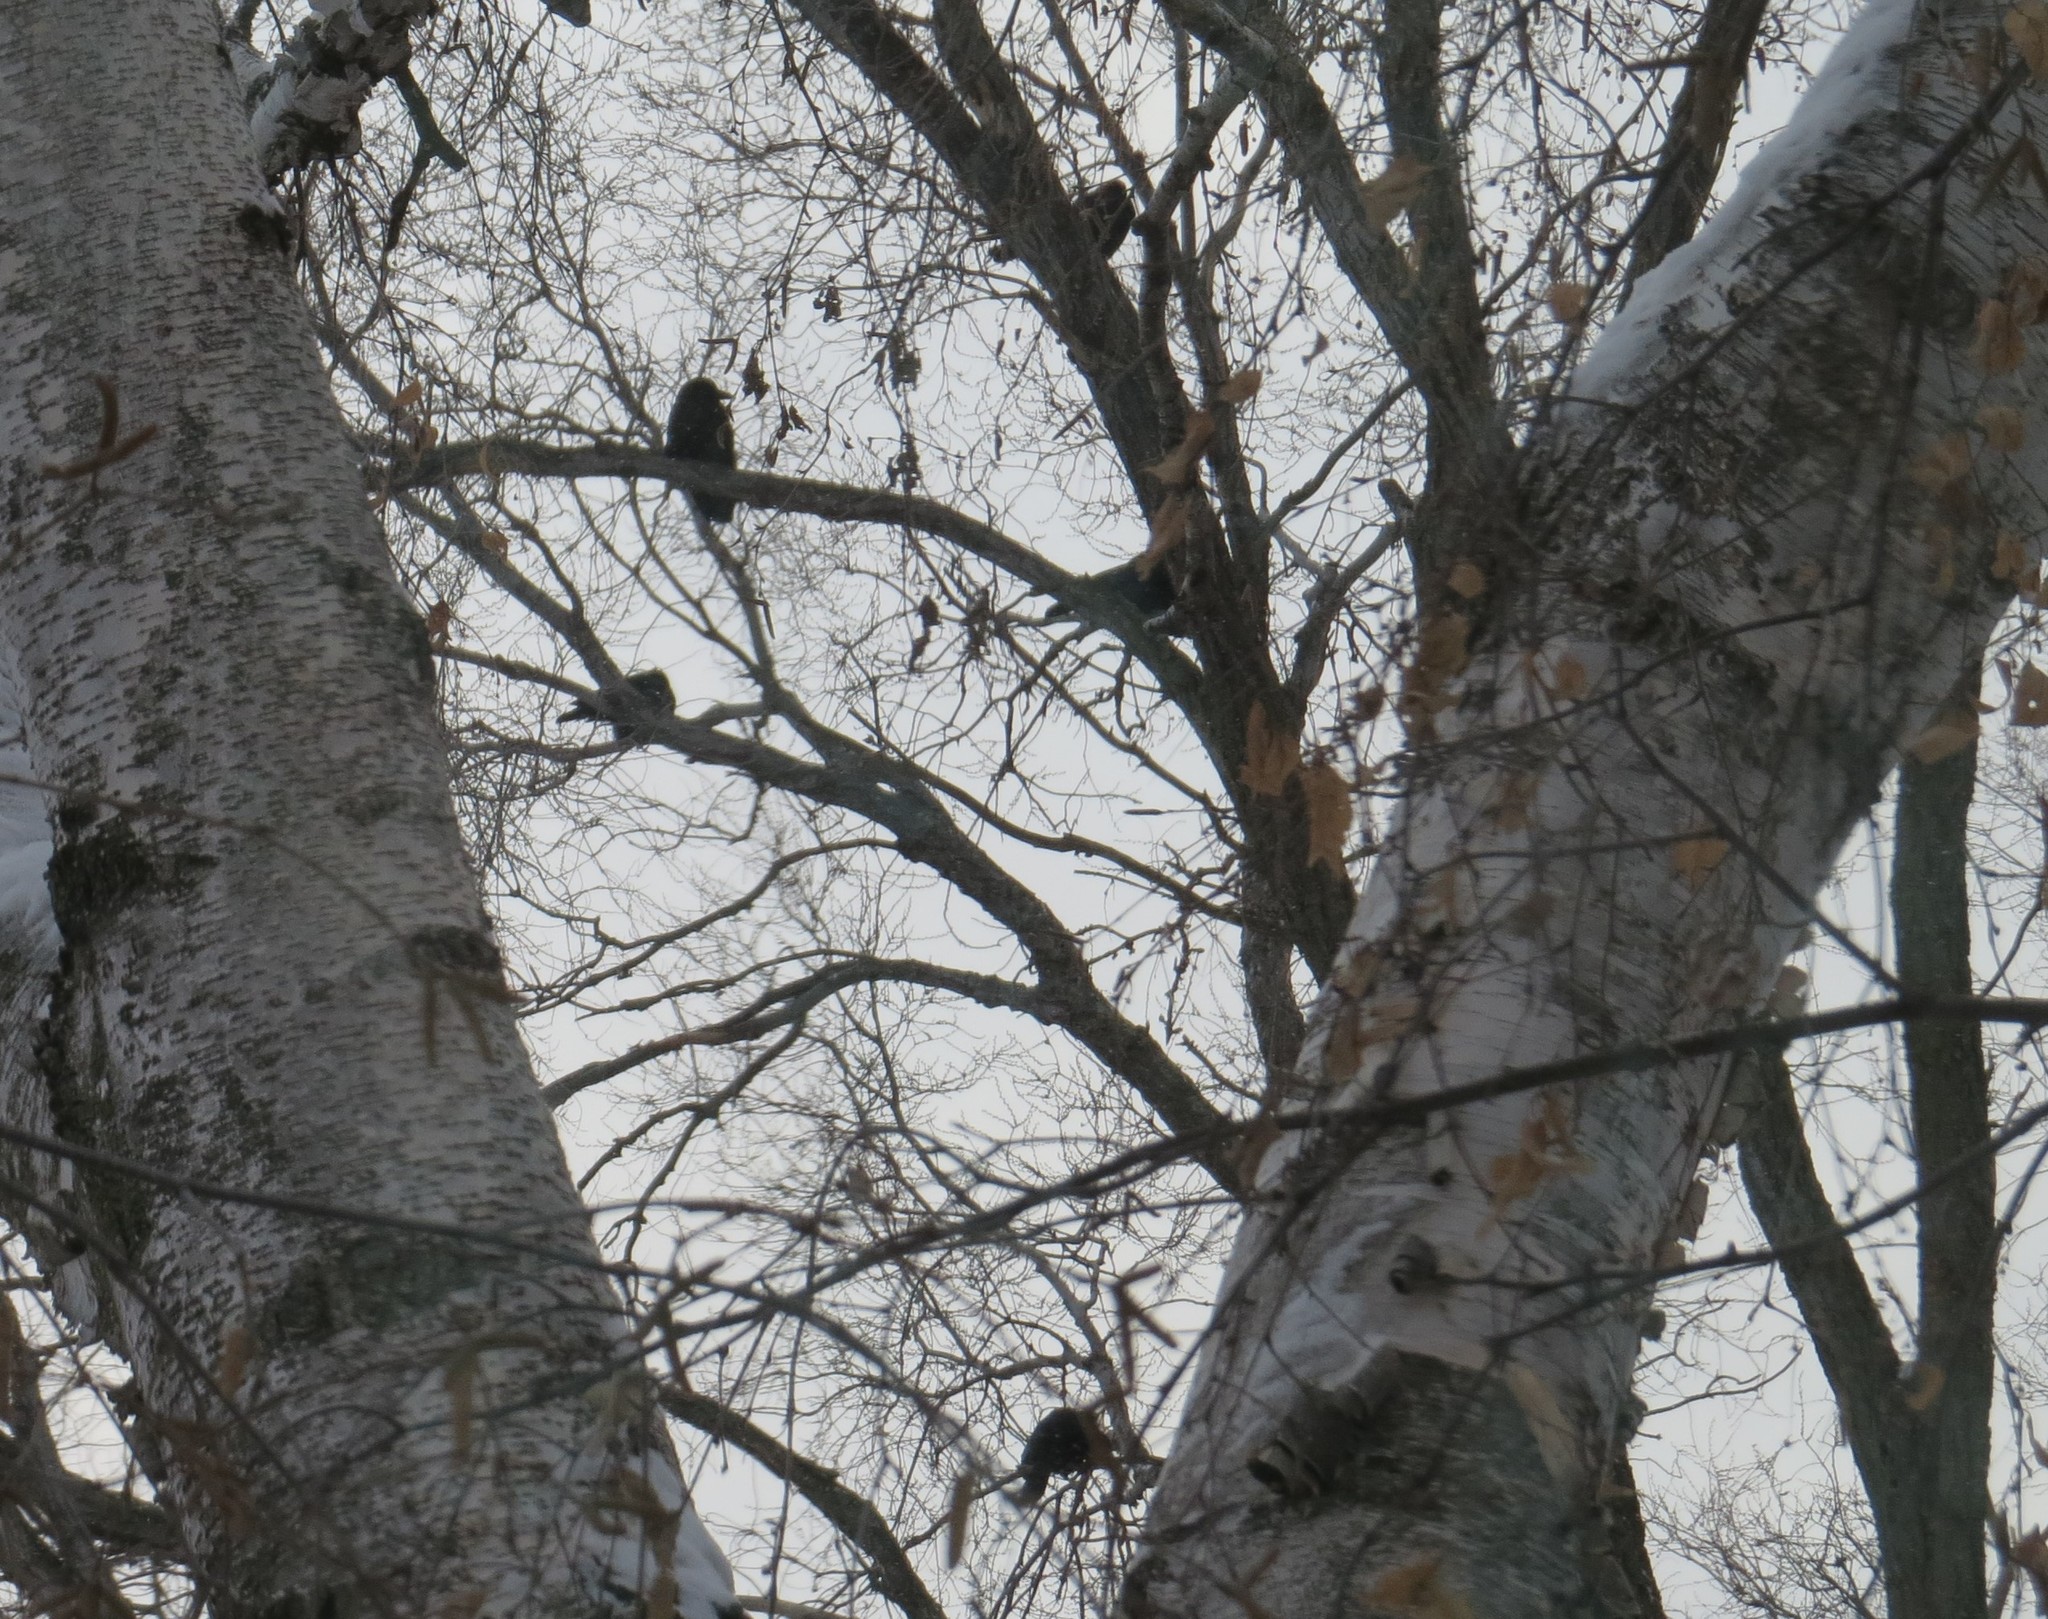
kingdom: Animalia
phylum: Chordata
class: Aves
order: Passeriformes
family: Corvidae
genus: Corvus
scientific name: Corvus brachyrhynchos
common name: American crow
